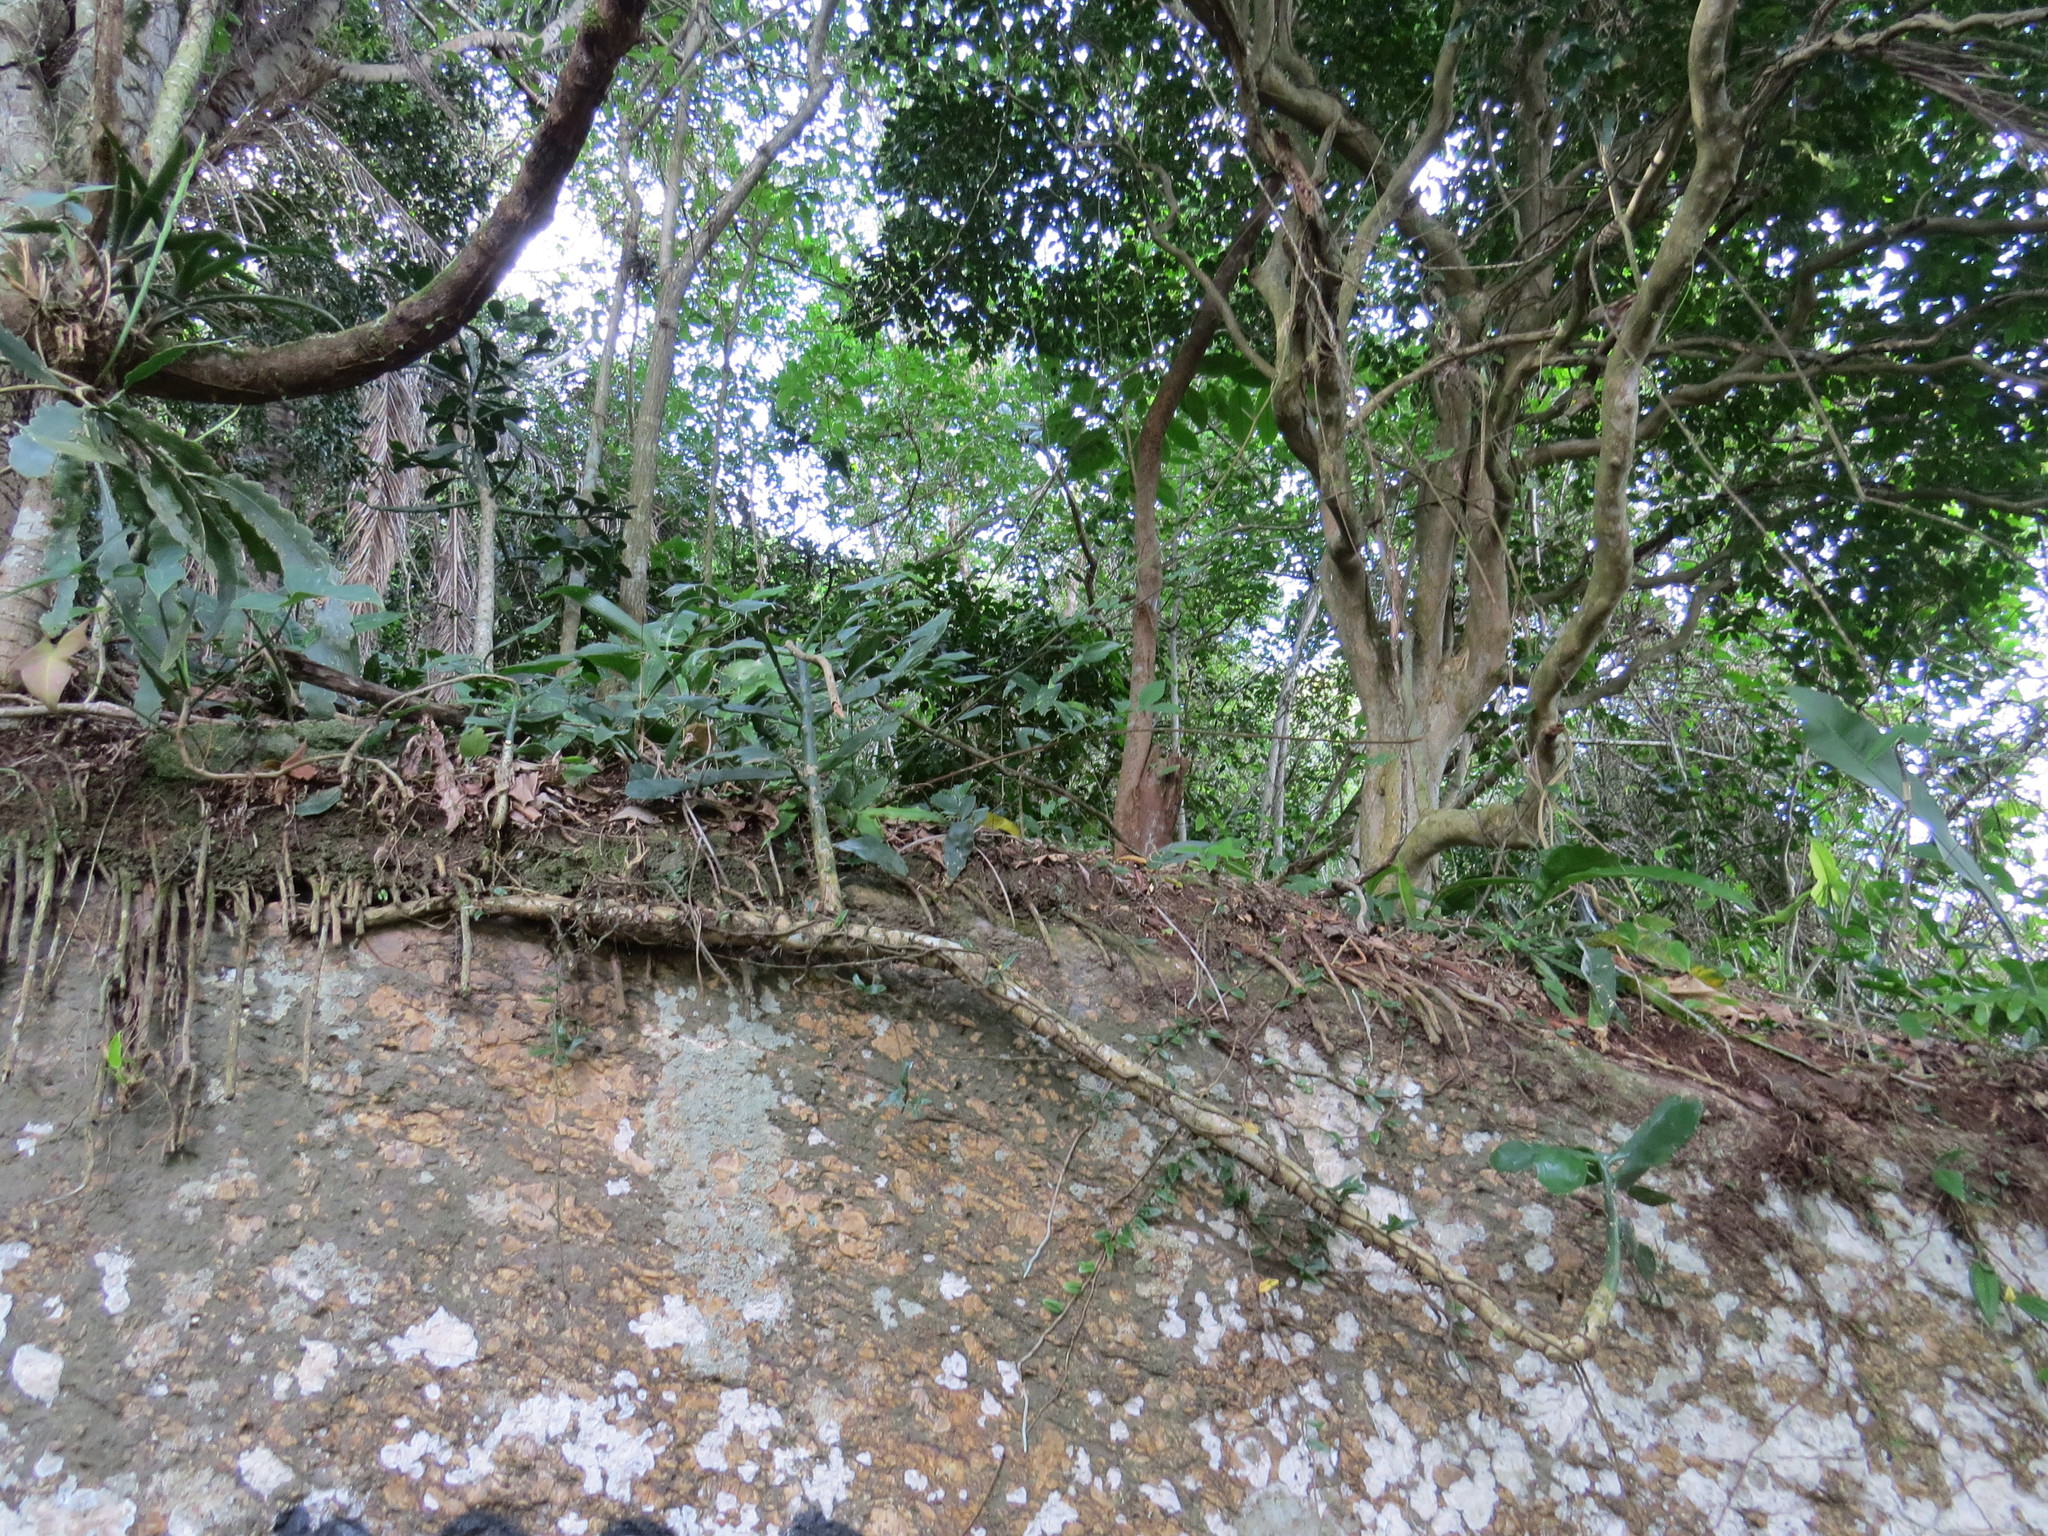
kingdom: Plantae
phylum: Tracheophyta
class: Magnoliopsida
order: Caryophyllales
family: Cactaceae
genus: Brasiliopuntia
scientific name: Brasiliopuntia brasiliensis
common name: Brazilian pricklypear
